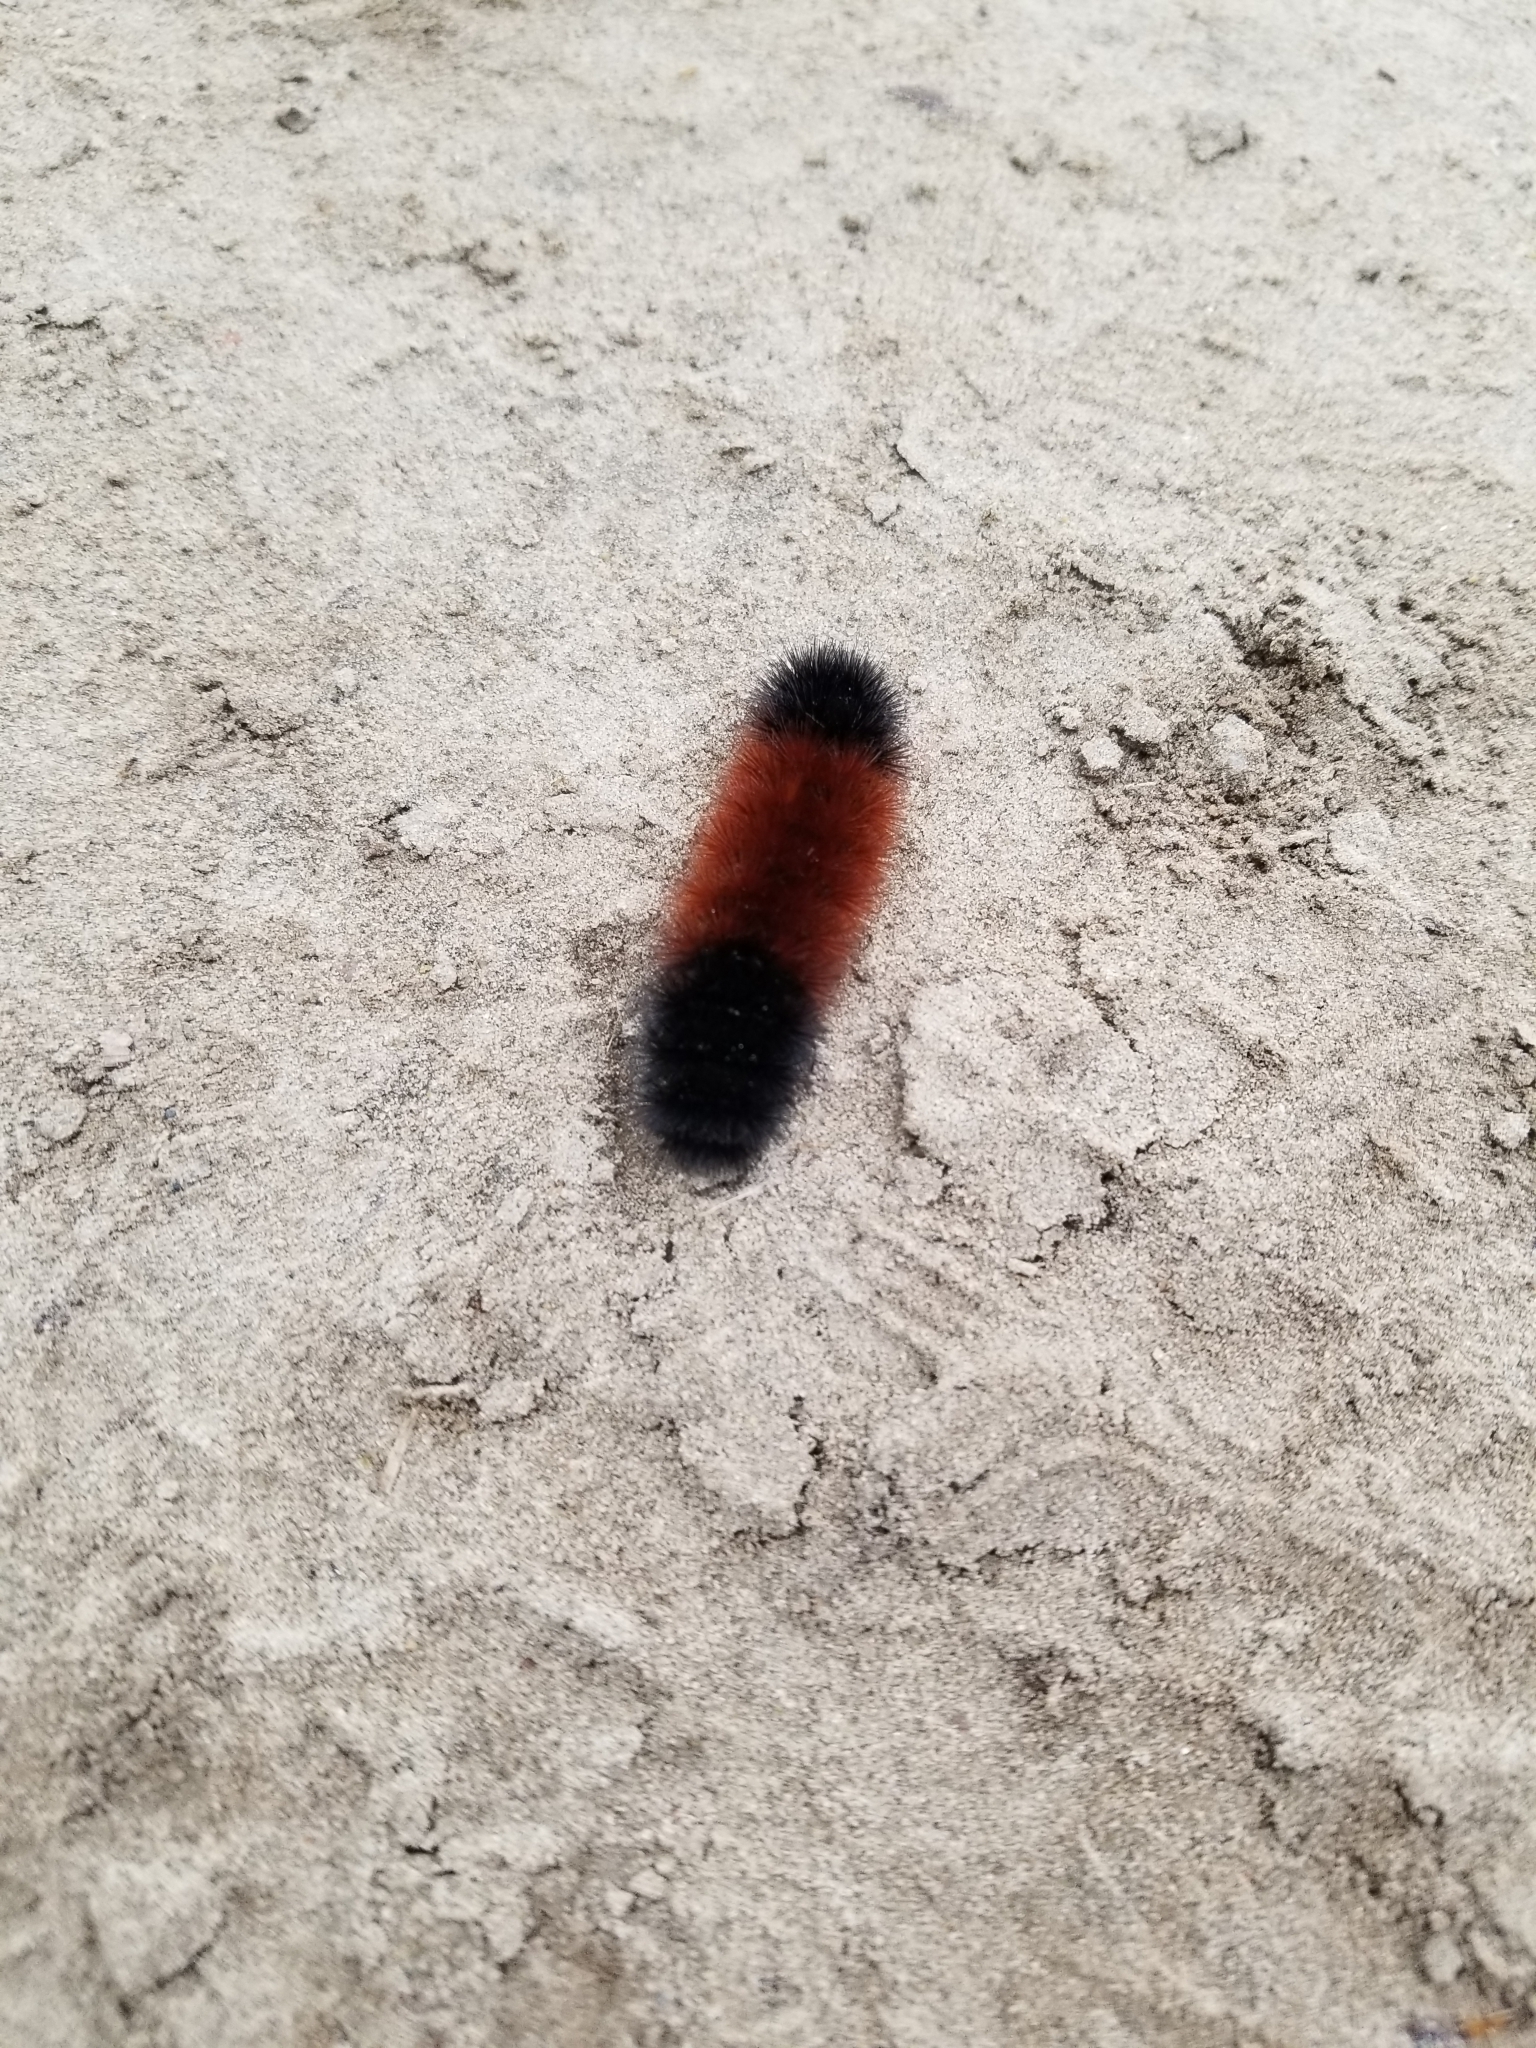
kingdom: Animalia
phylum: Arthropoda
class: Insecta
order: Lepidoptera
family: Erebidae
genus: Pyrrharctia
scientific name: Pyrrharctia isabella
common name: Isabella tiger moth
